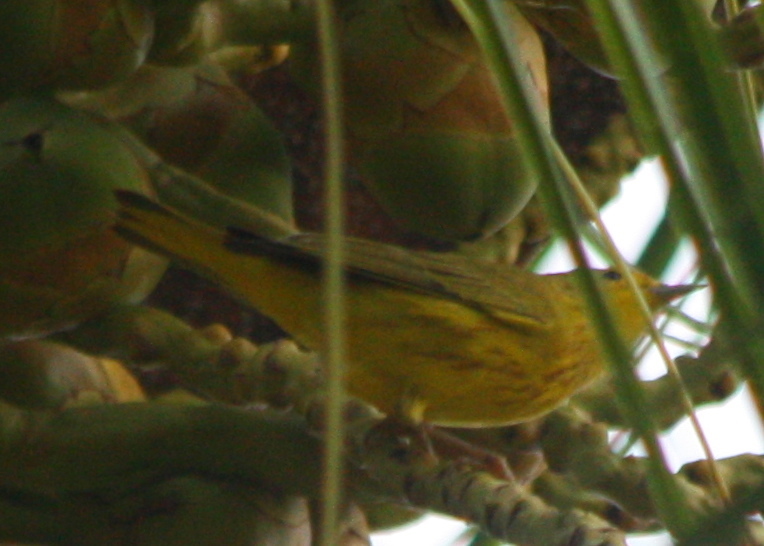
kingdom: Animalia
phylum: Chordata
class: Aves
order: Passeriformes
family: Parulidae
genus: Setophaga
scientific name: Setophaga petechia
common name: Yellow warbler
